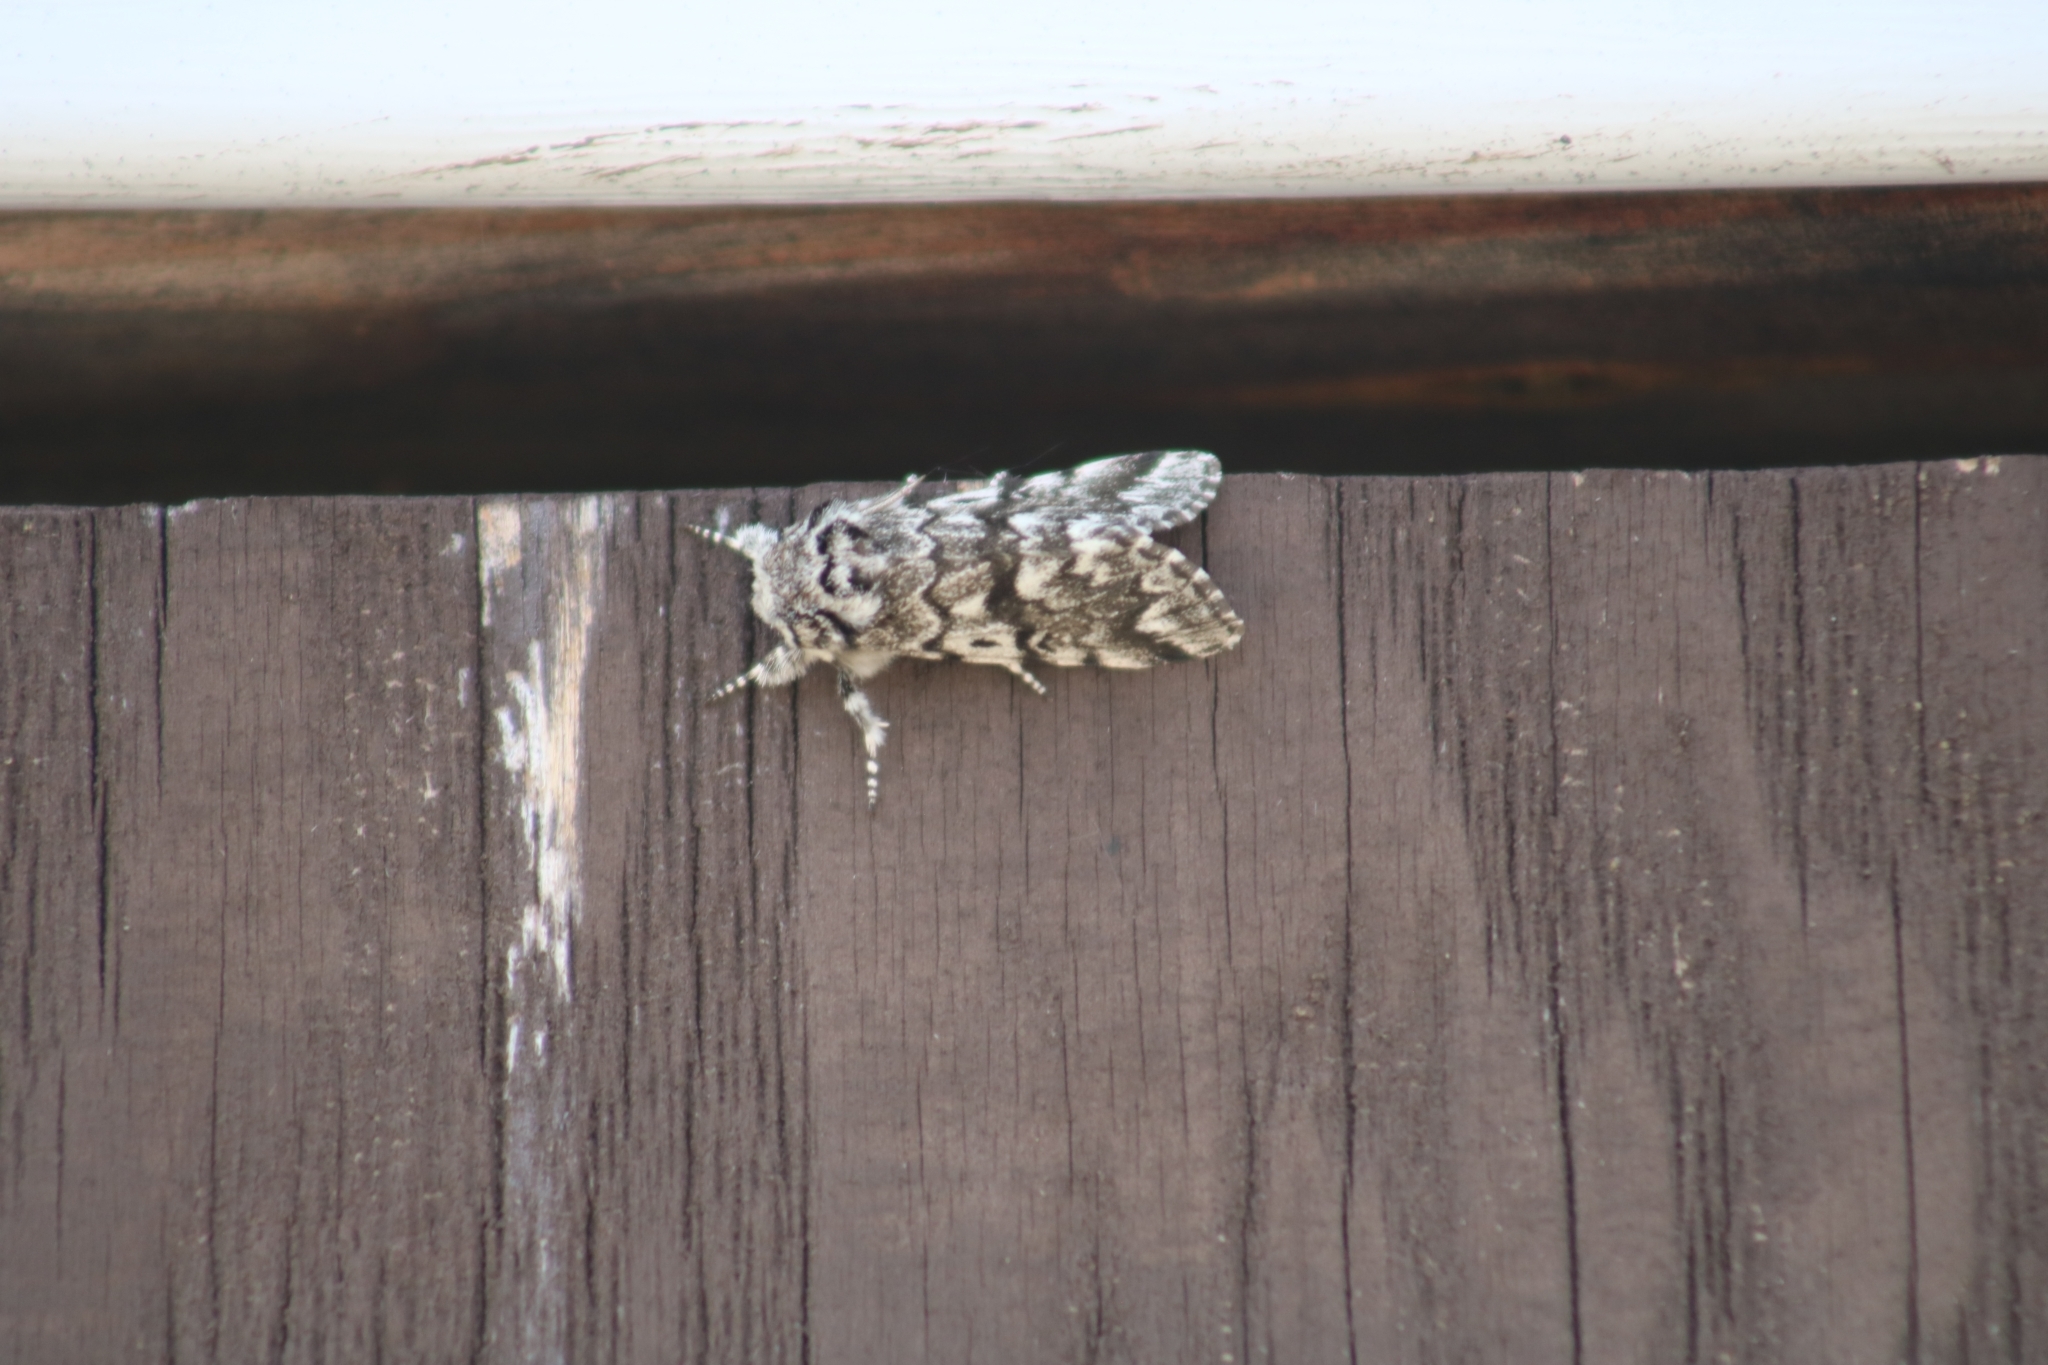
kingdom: Animalia
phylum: Arthropoda
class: Insecta
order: Lepidoptera
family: Noctuidae
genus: Panthea
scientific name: Panthea acronyctoides
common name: Black zigzag moth
